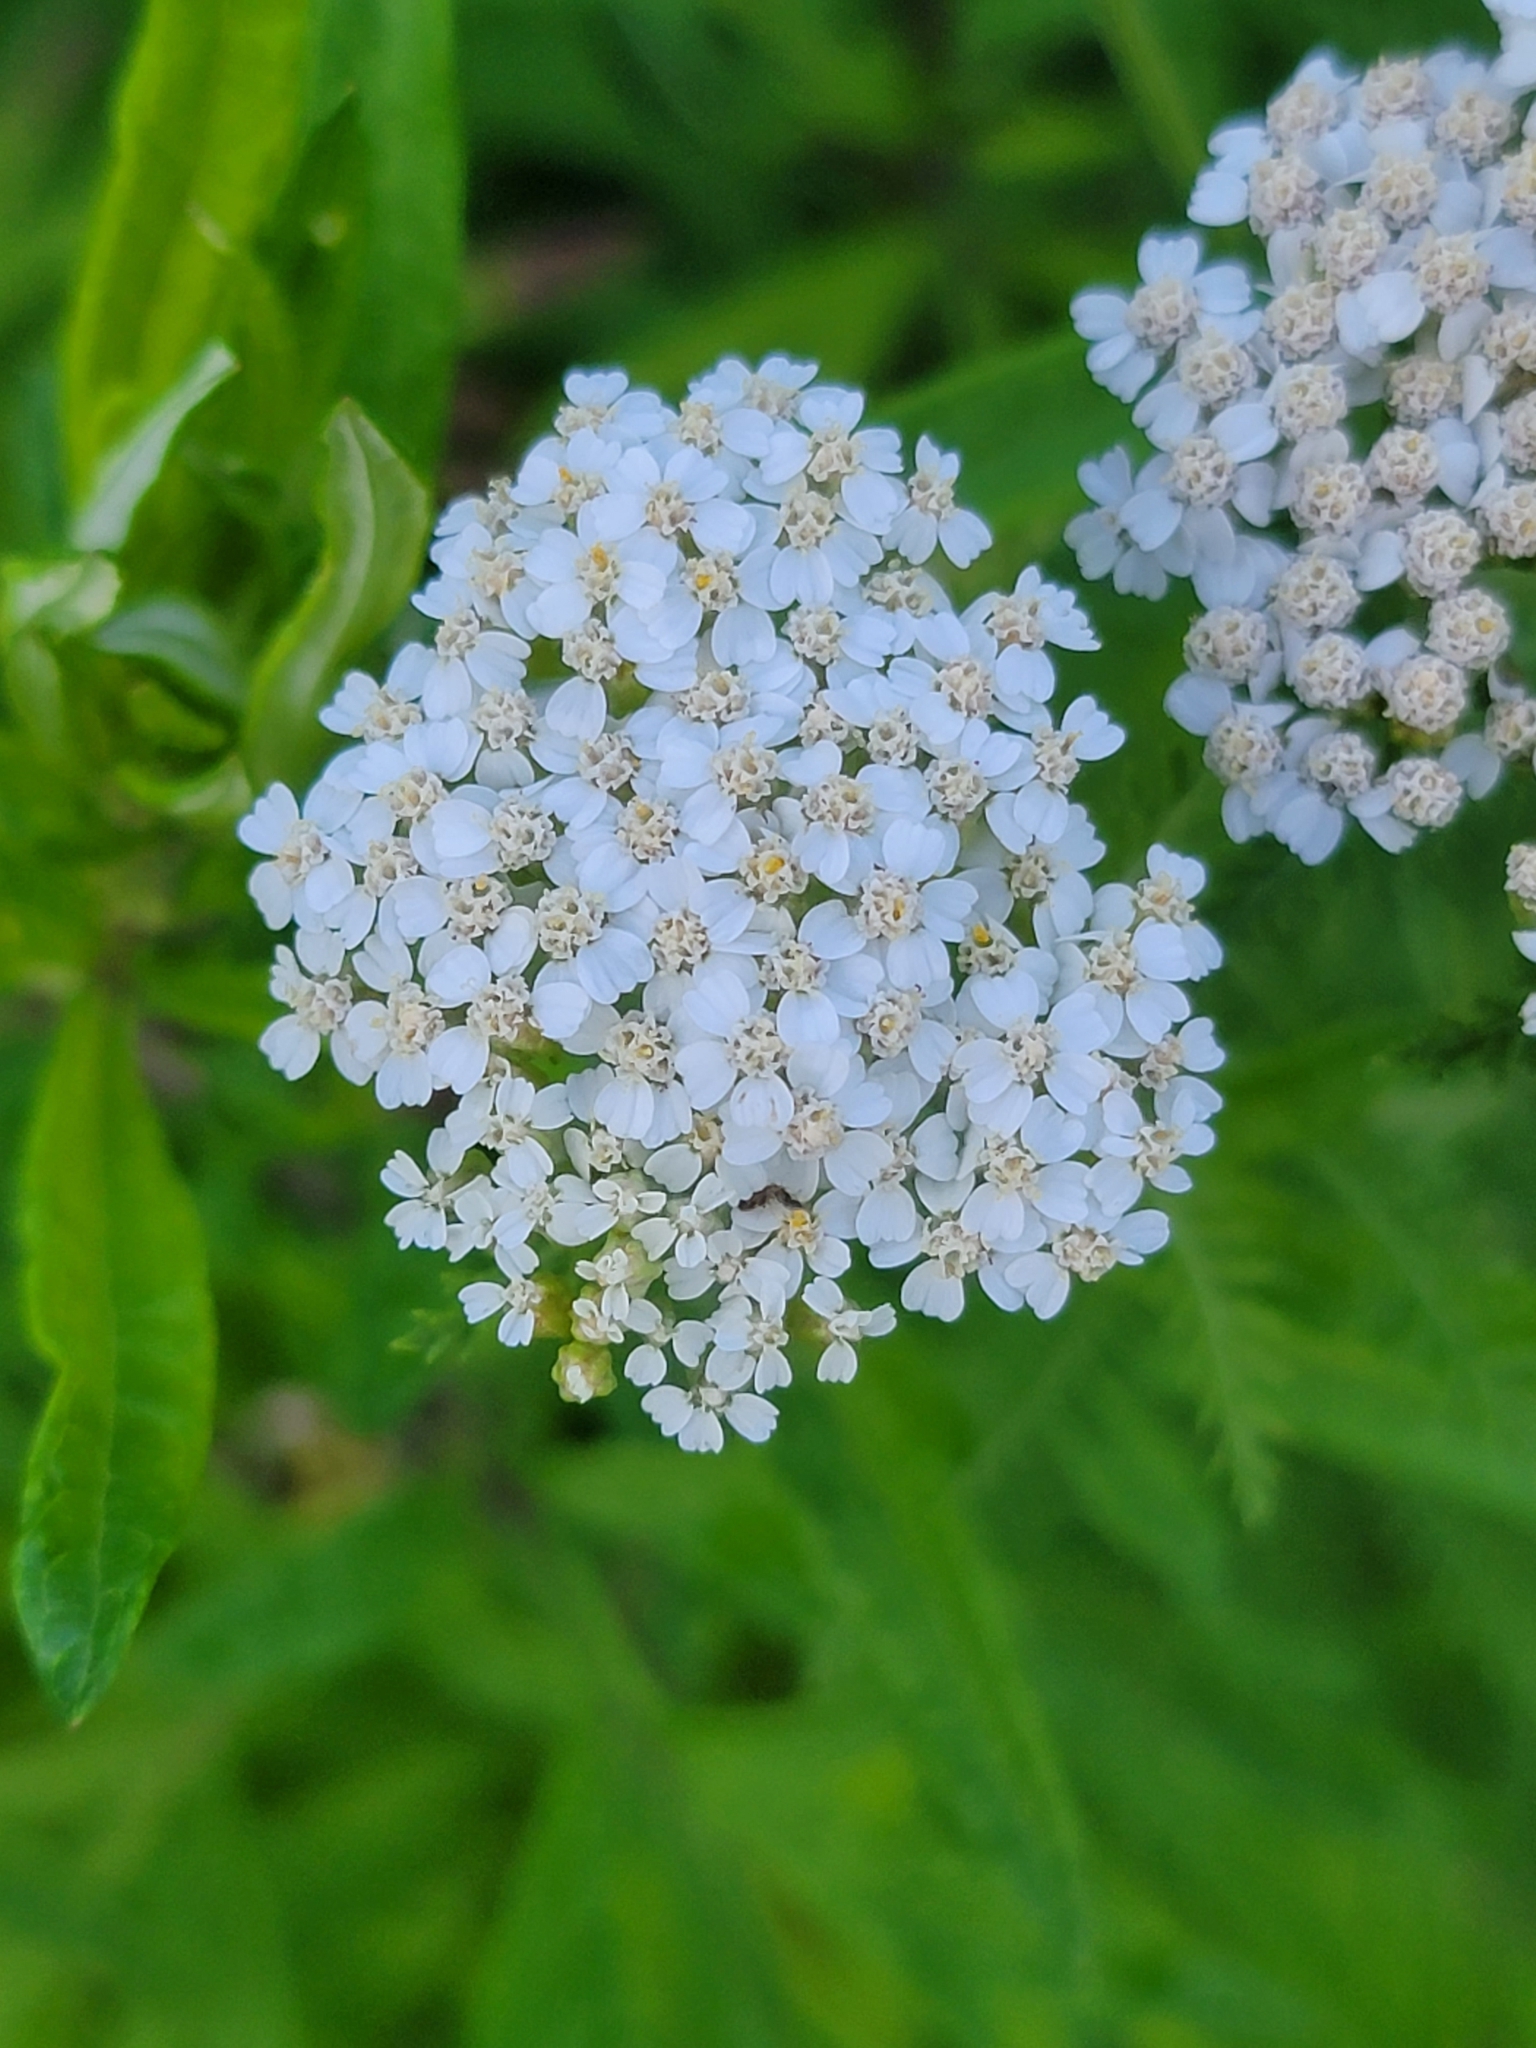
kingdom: Plantae
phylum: Tracheophyta
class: Magnoliopsida
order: Asterales
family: Asteraceae
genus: Achillea
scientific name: Achillea millefolium
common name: Yarrow
